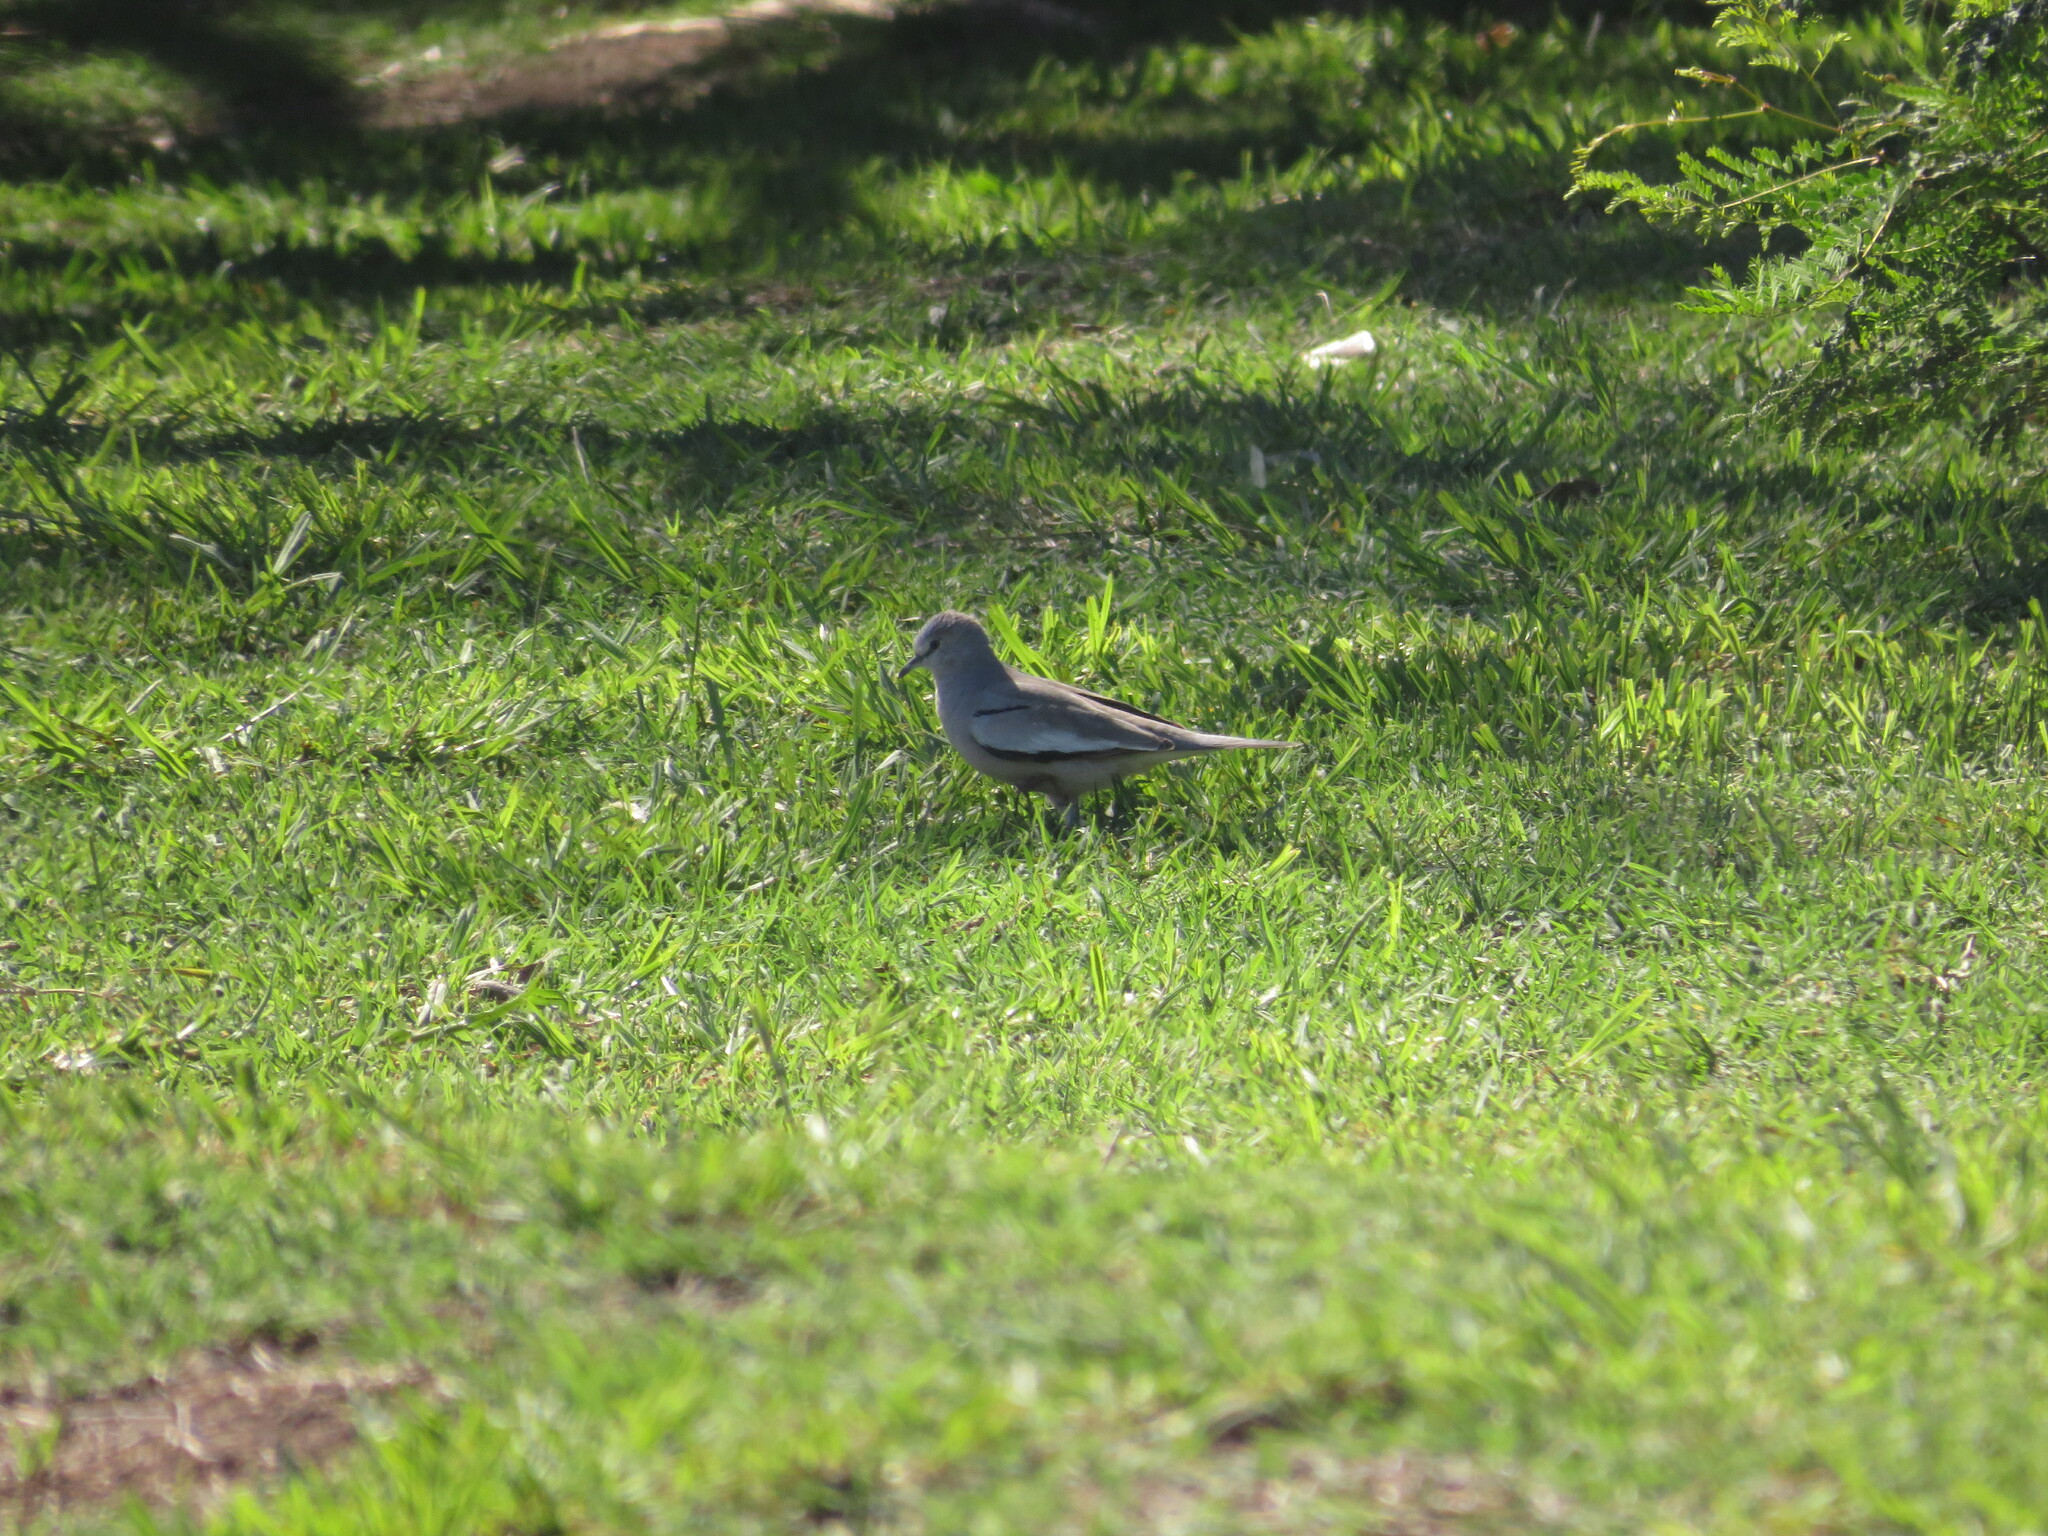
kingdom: Animalia
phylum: Chordata
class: Aves
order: Columbiformes
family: Columbidae
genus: Columbina
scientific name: Columbina picui
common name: Picui ground dove
